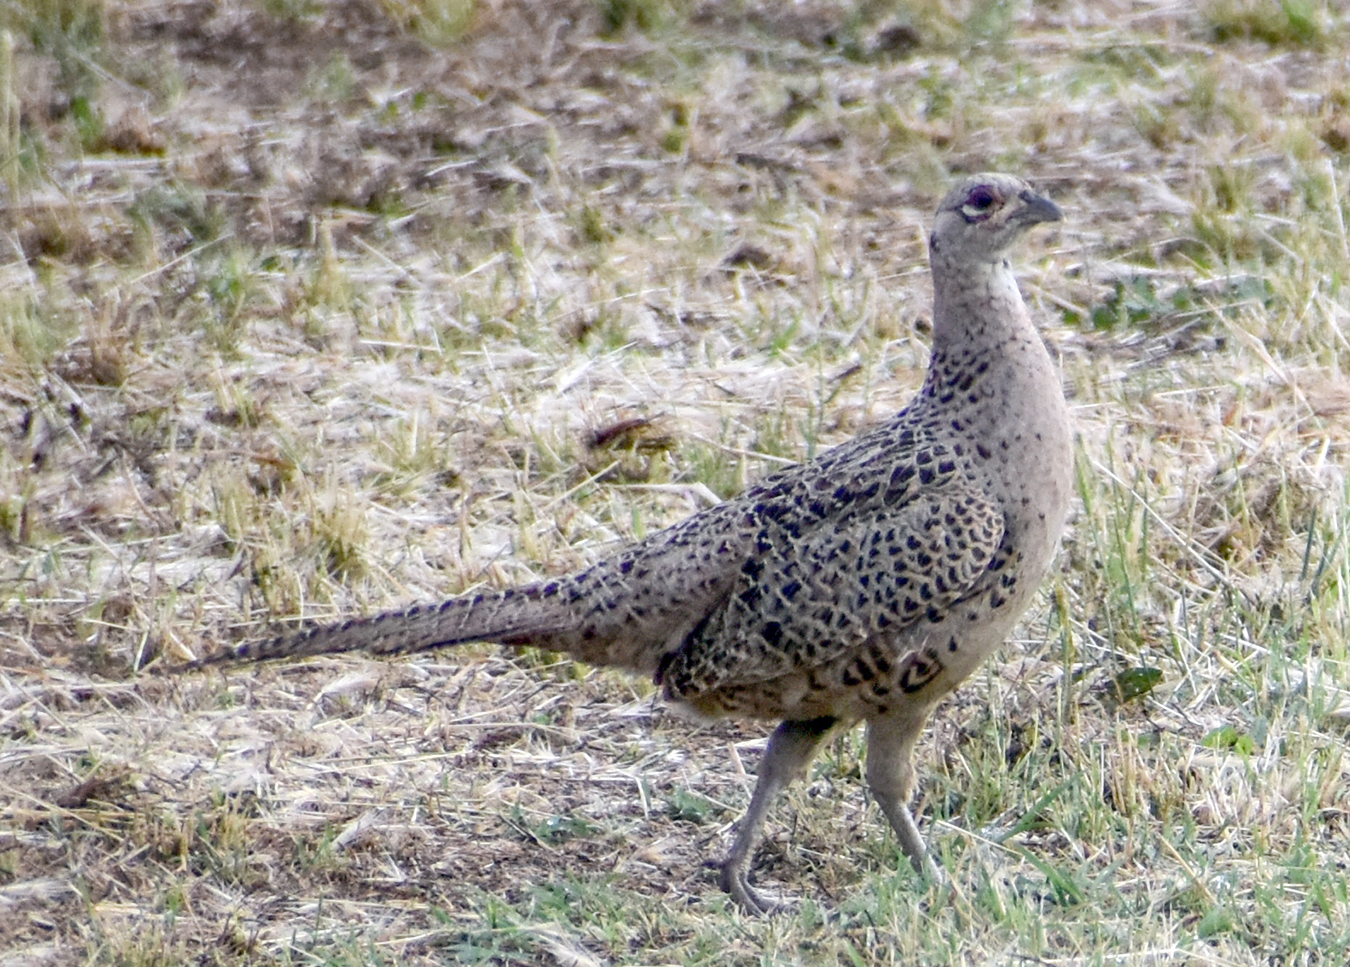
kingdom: Animalia
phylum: Chordata
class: Aves
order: Galliformes
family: Phasianidae
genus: Phasianus
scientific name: Phasianus colchicus
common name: Common pheasant
